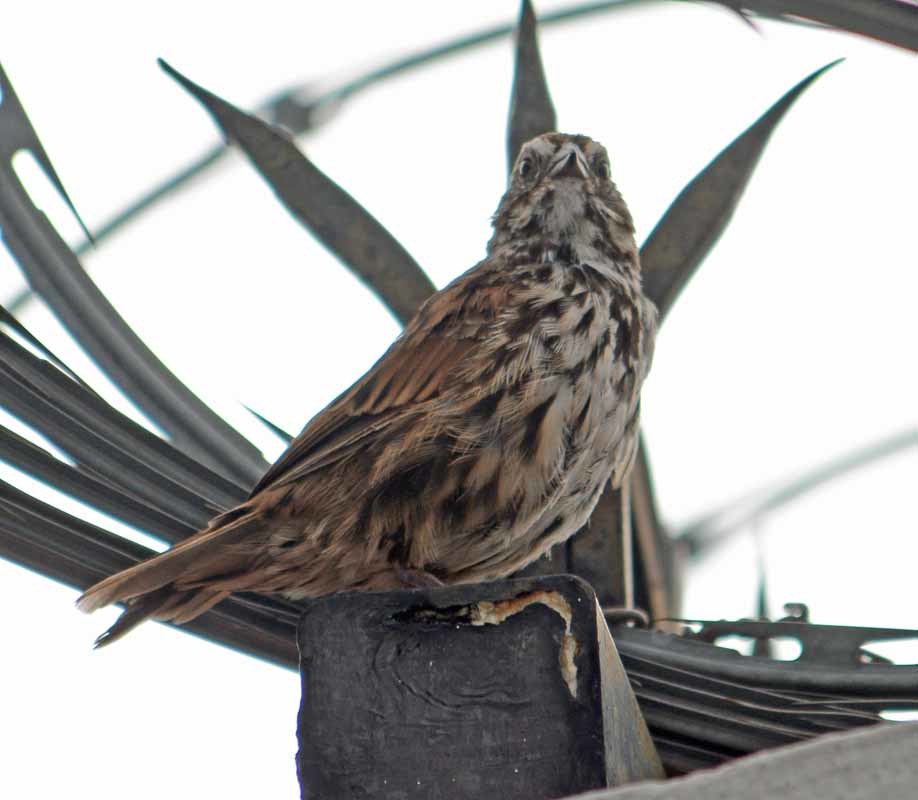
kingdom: Animalia
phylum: Chordata
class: Aves
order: Passeriformes
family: Passerellidae
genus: Melospiza
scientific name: Melospiza melodia
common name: Song sparrow
